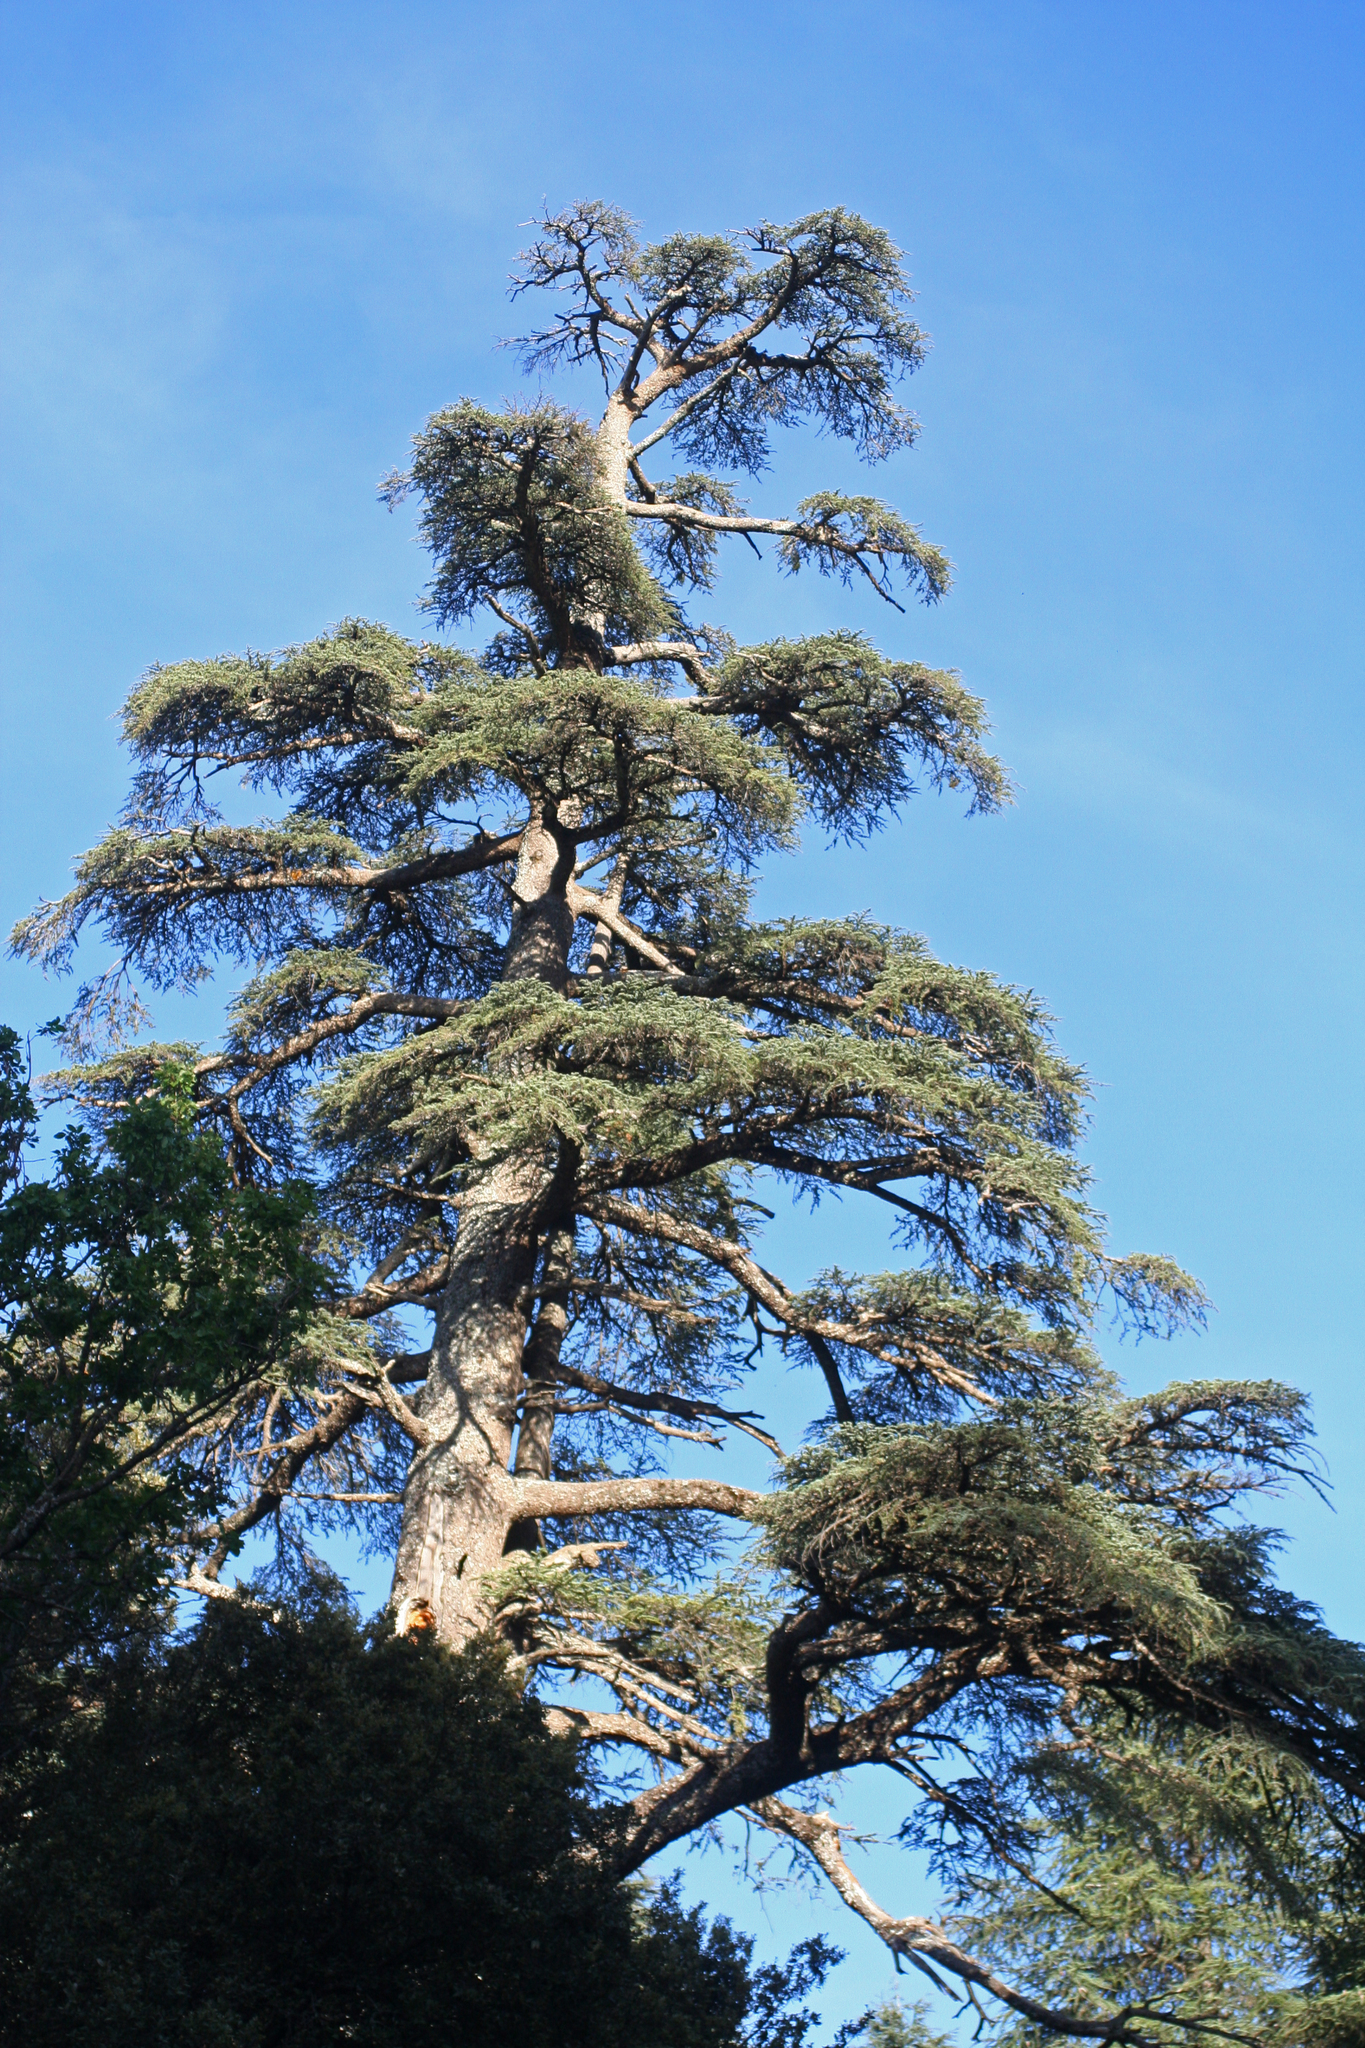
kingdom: Plantae
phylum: Tracheophyta
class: Pinopsida
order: Pinales
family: Pinaceae
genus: Cedrus
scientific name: Cedrus atlantica
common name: Atlas cedar
